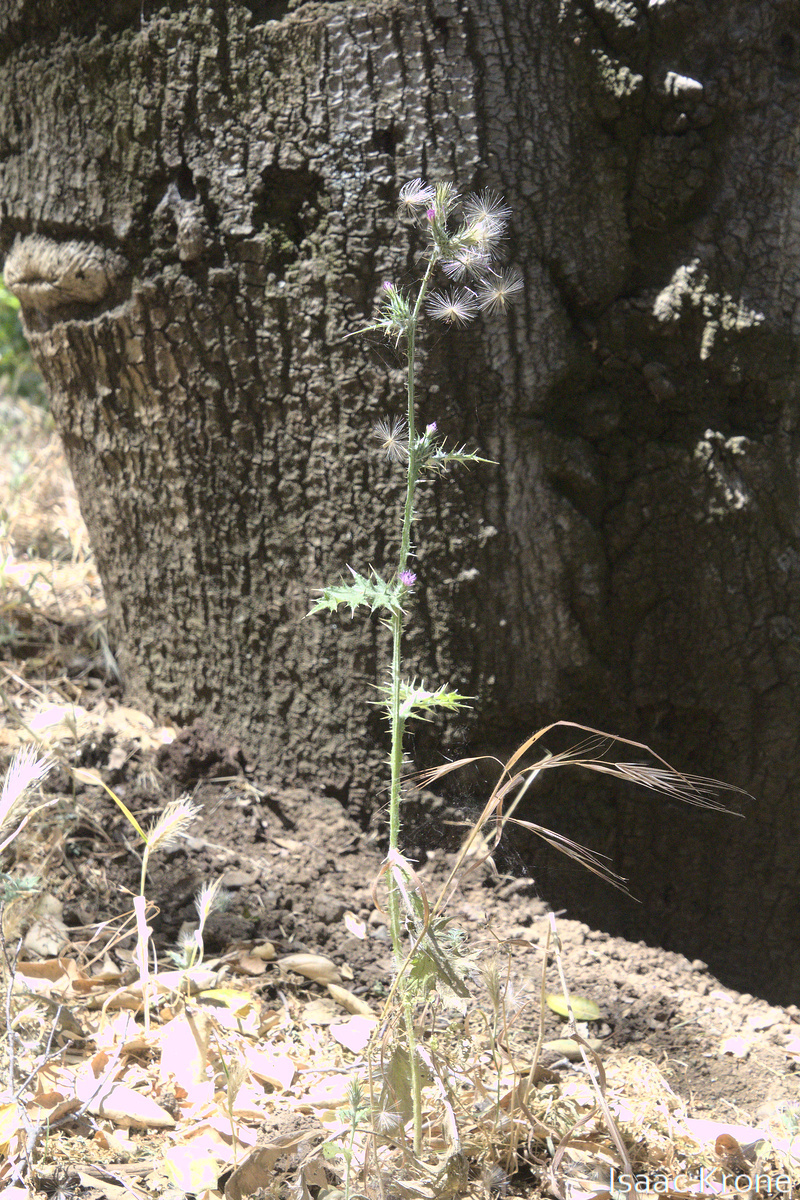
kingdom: Plantae
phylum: Tracheophyta
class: Magnoliopsida
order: Asterales
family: Asteraceae
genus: Carduus
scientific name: Carduus pycnocephalus
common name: Plymouth thistle
